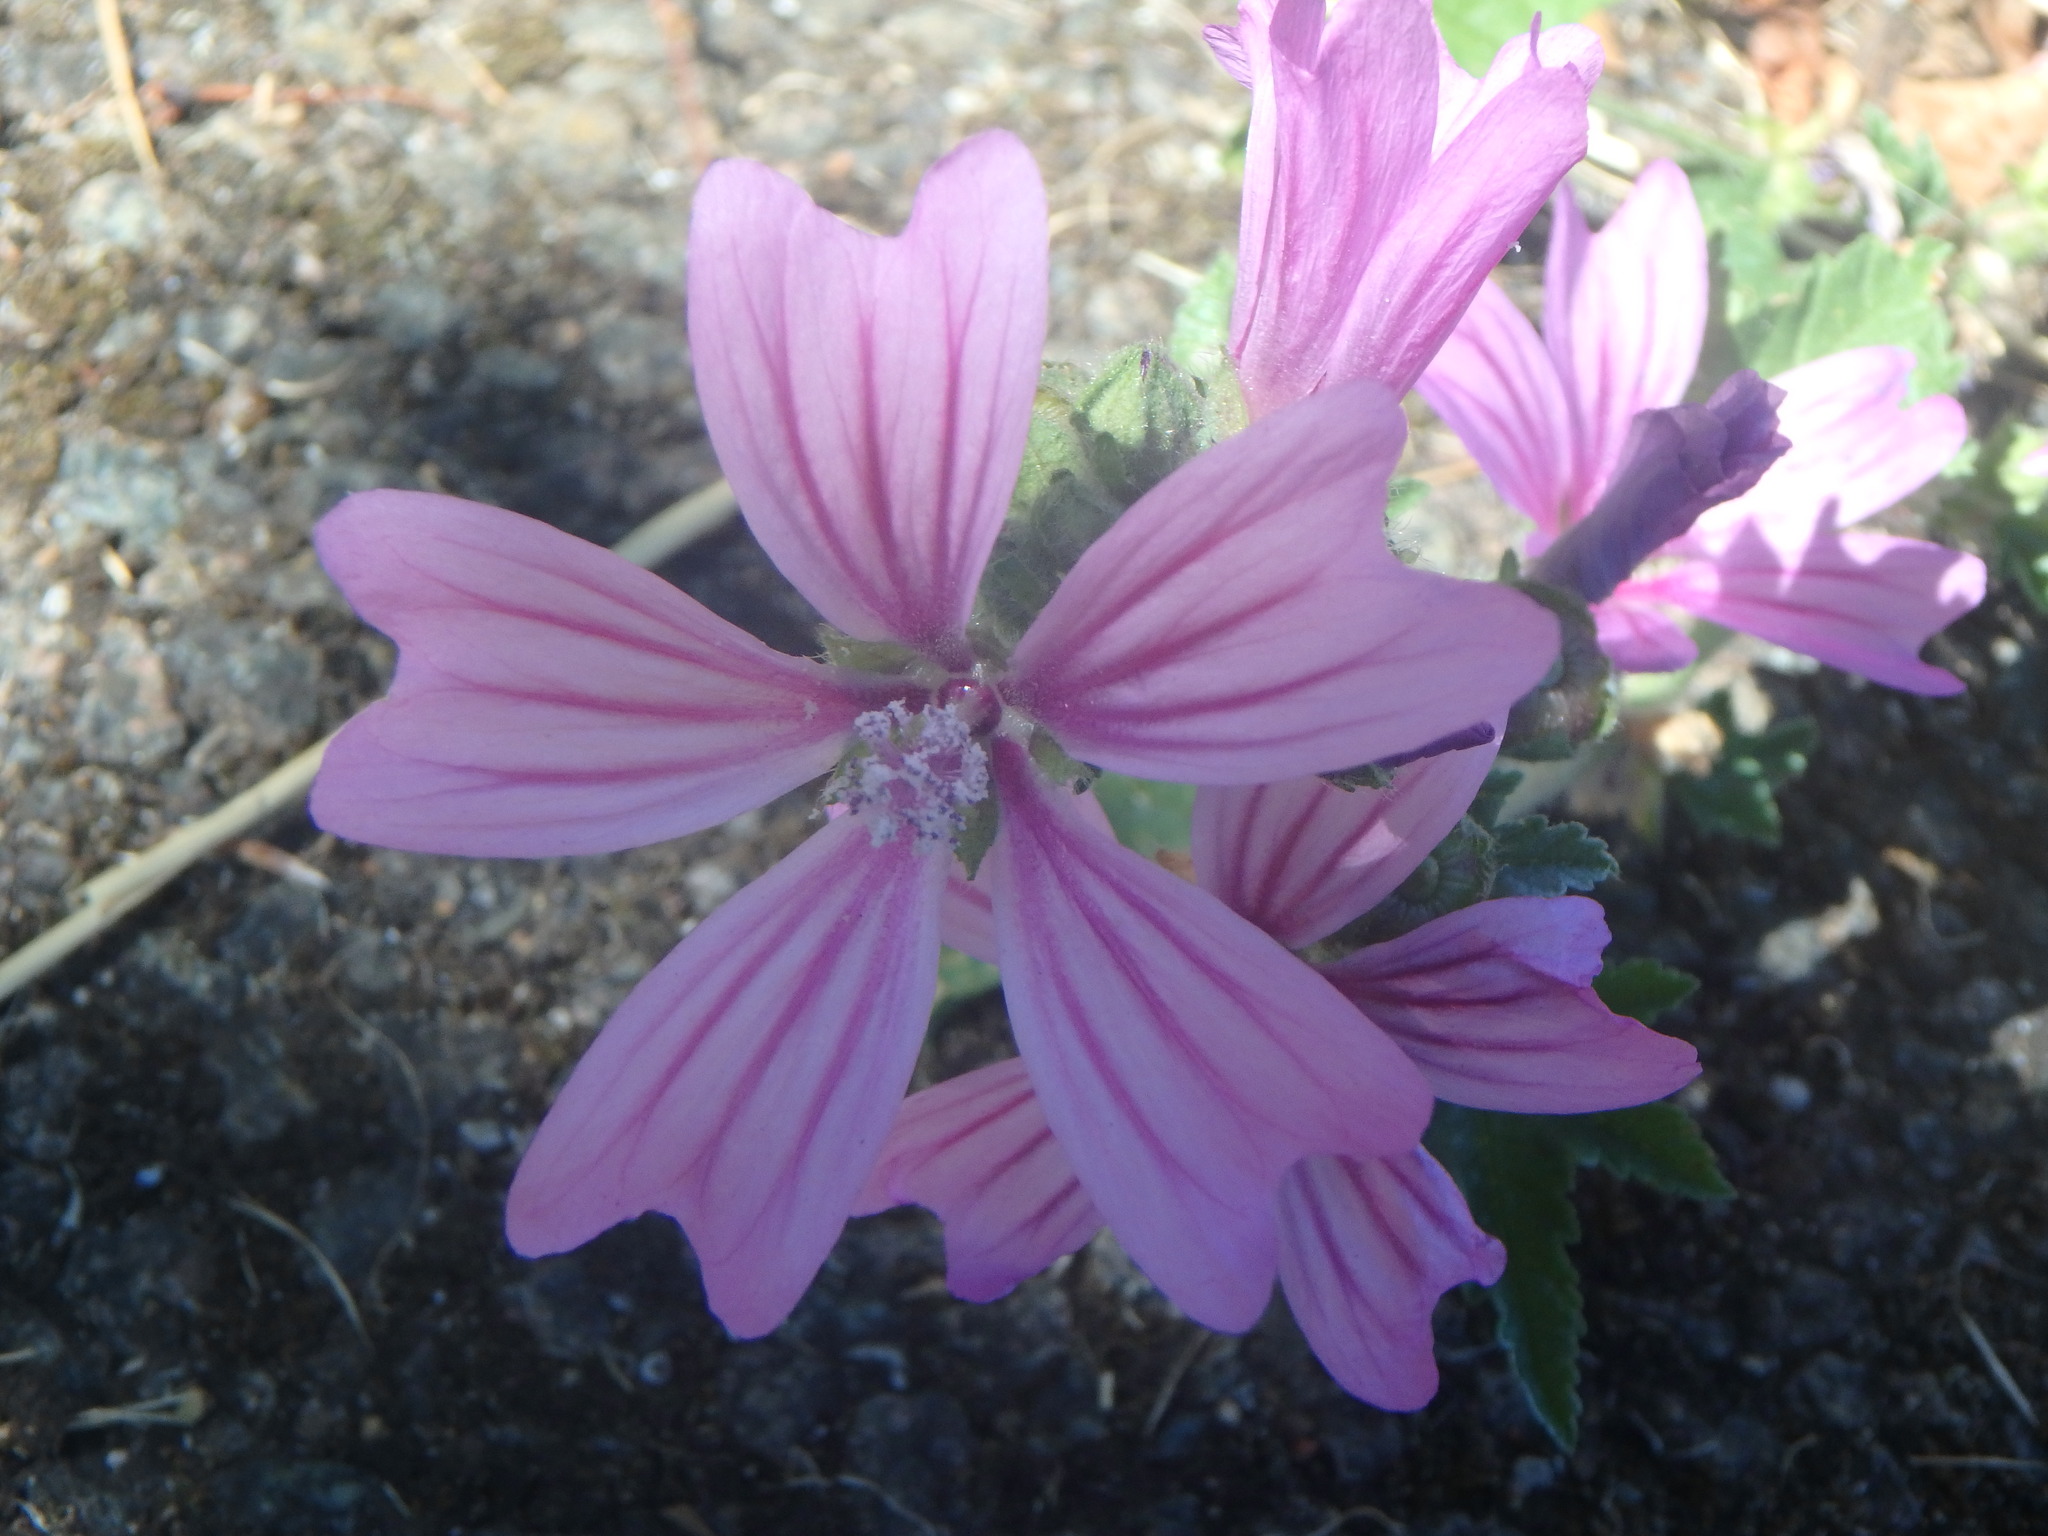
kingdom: Plantae
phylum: Tracheophyta
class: Magnoliopsida
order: Malvales
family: Malvaceae
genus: Malva
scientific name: Malva sylvestris
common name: Common mallow
